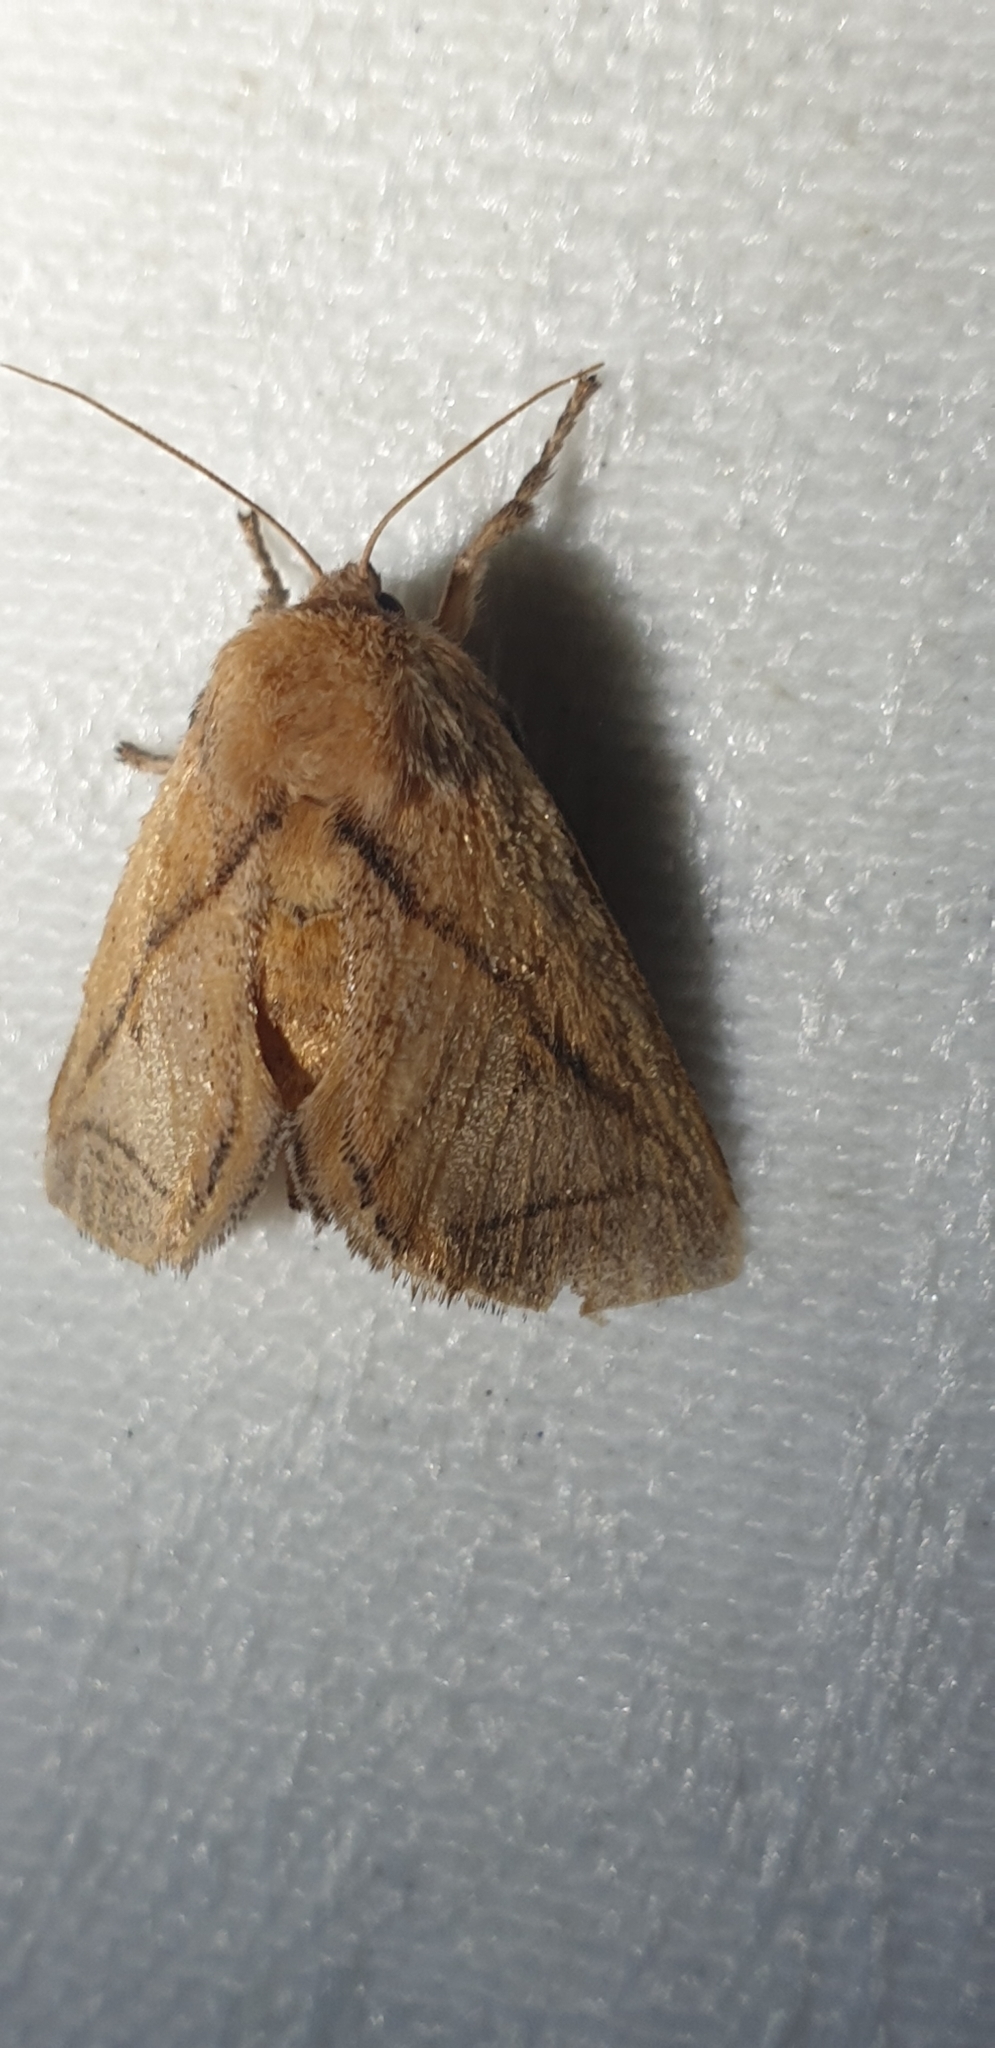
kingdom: Animalia
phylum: Arthropoda
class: Insecta
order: Lepidoptera
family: Limacodidae
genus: Anaxidia
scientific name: Anaxidia lozogramma
